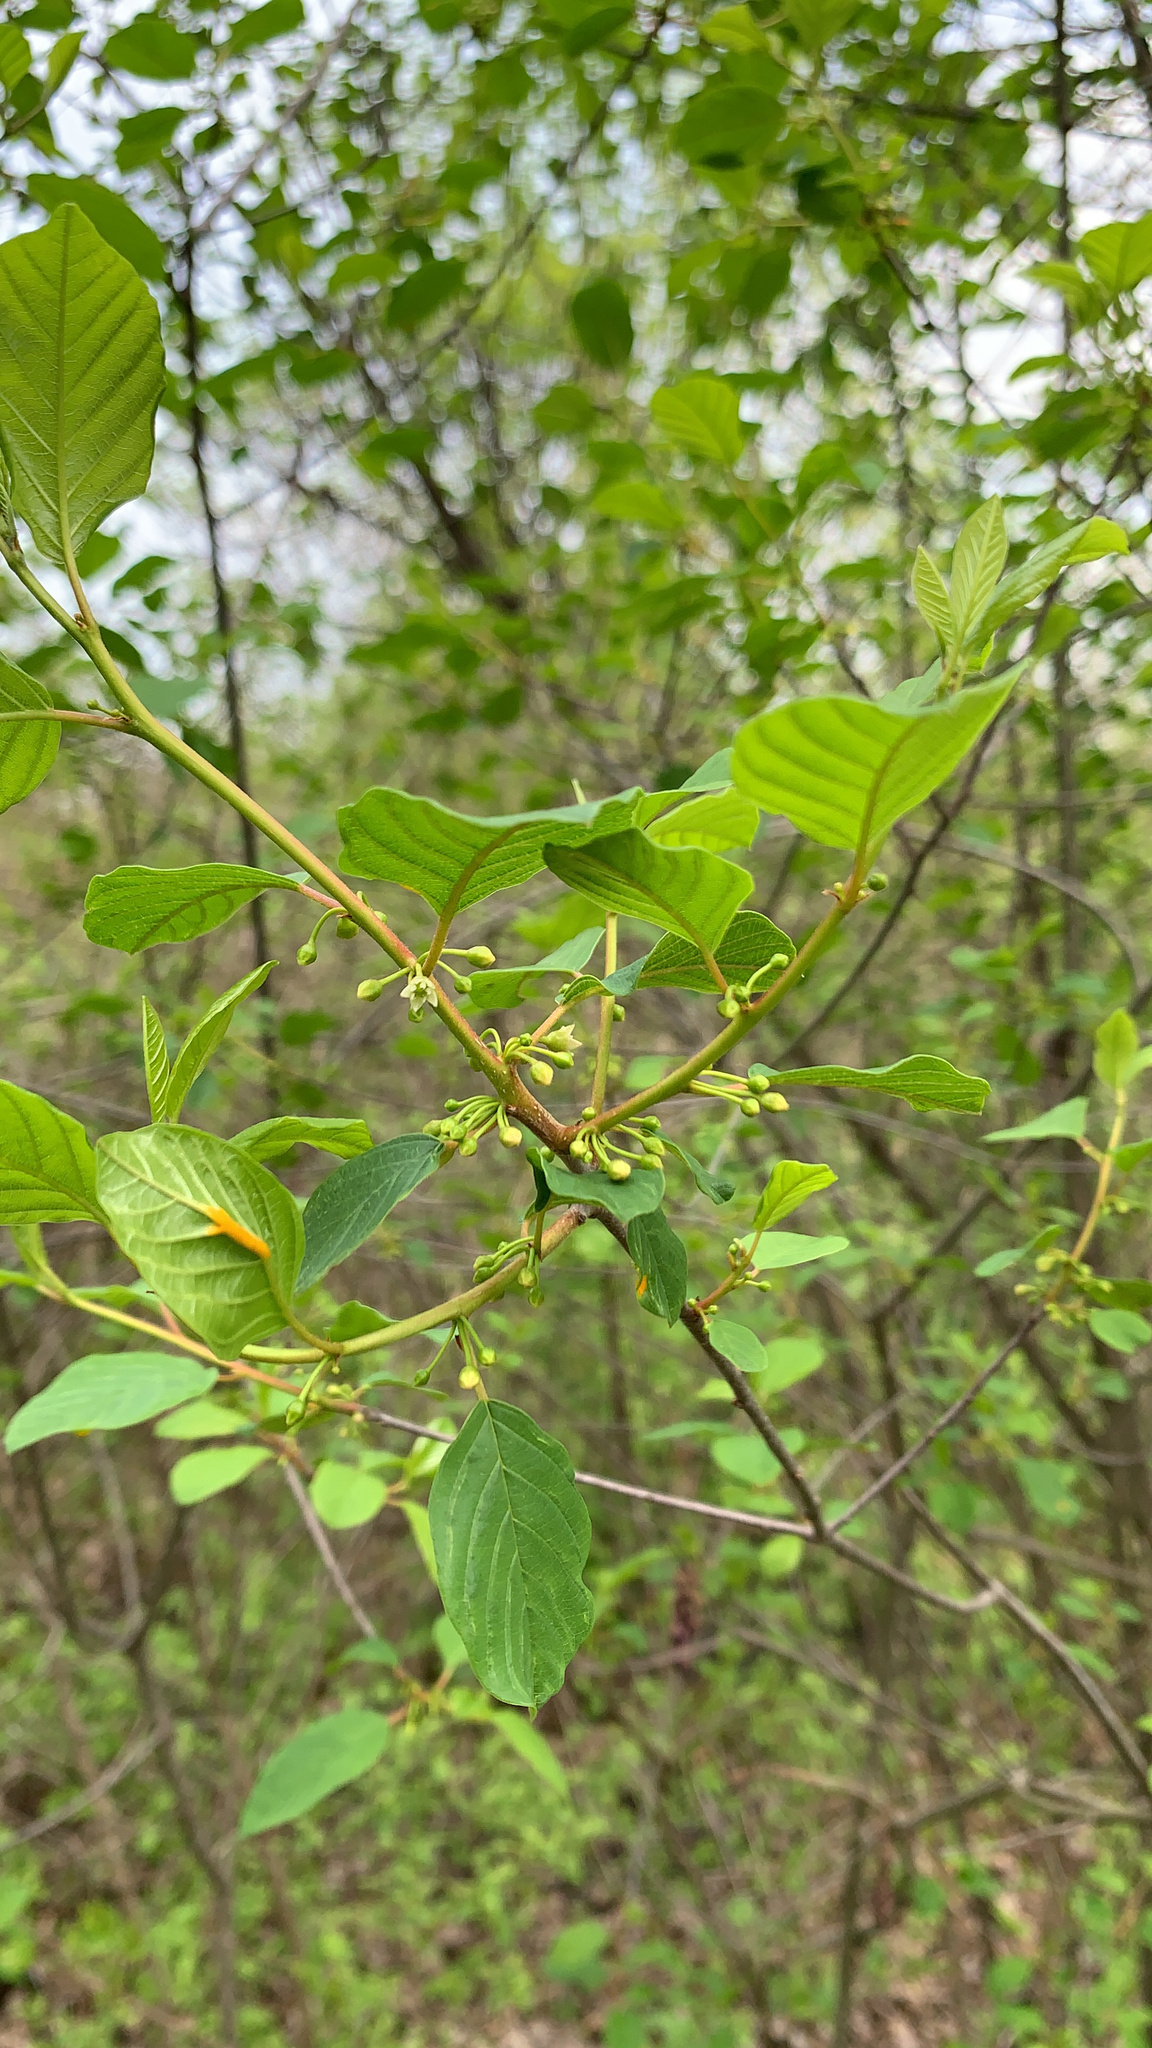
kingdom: Plantae
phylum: Tracheophyta
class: Magnoliopsida
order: Rosales
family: Rhamnaceae
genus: Frangula
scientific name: Frangula alnus
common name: Alder buckthorn
